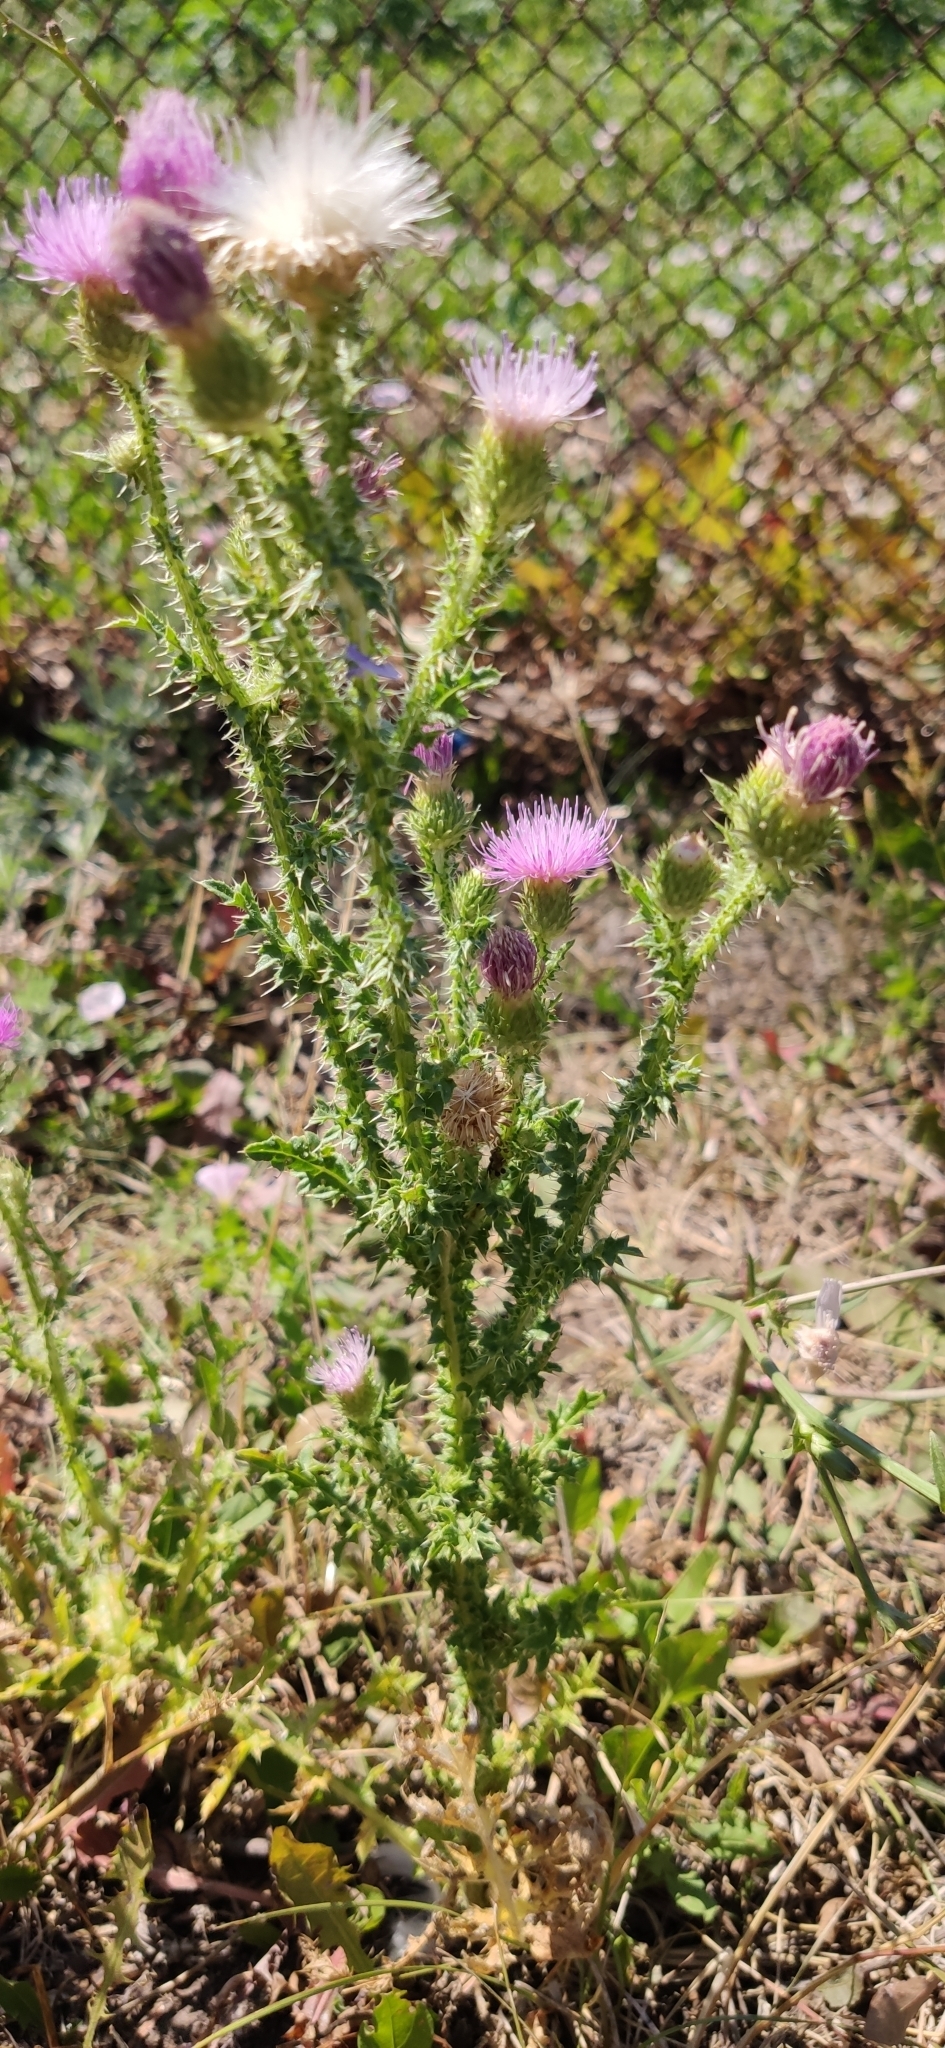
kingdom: Plantae
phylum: Tracheophyta
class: Magnoliopsida
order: Asterales
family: Asteraceae
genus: Carduus
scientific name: Carduus acanthoides
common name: Plumeless thistle
